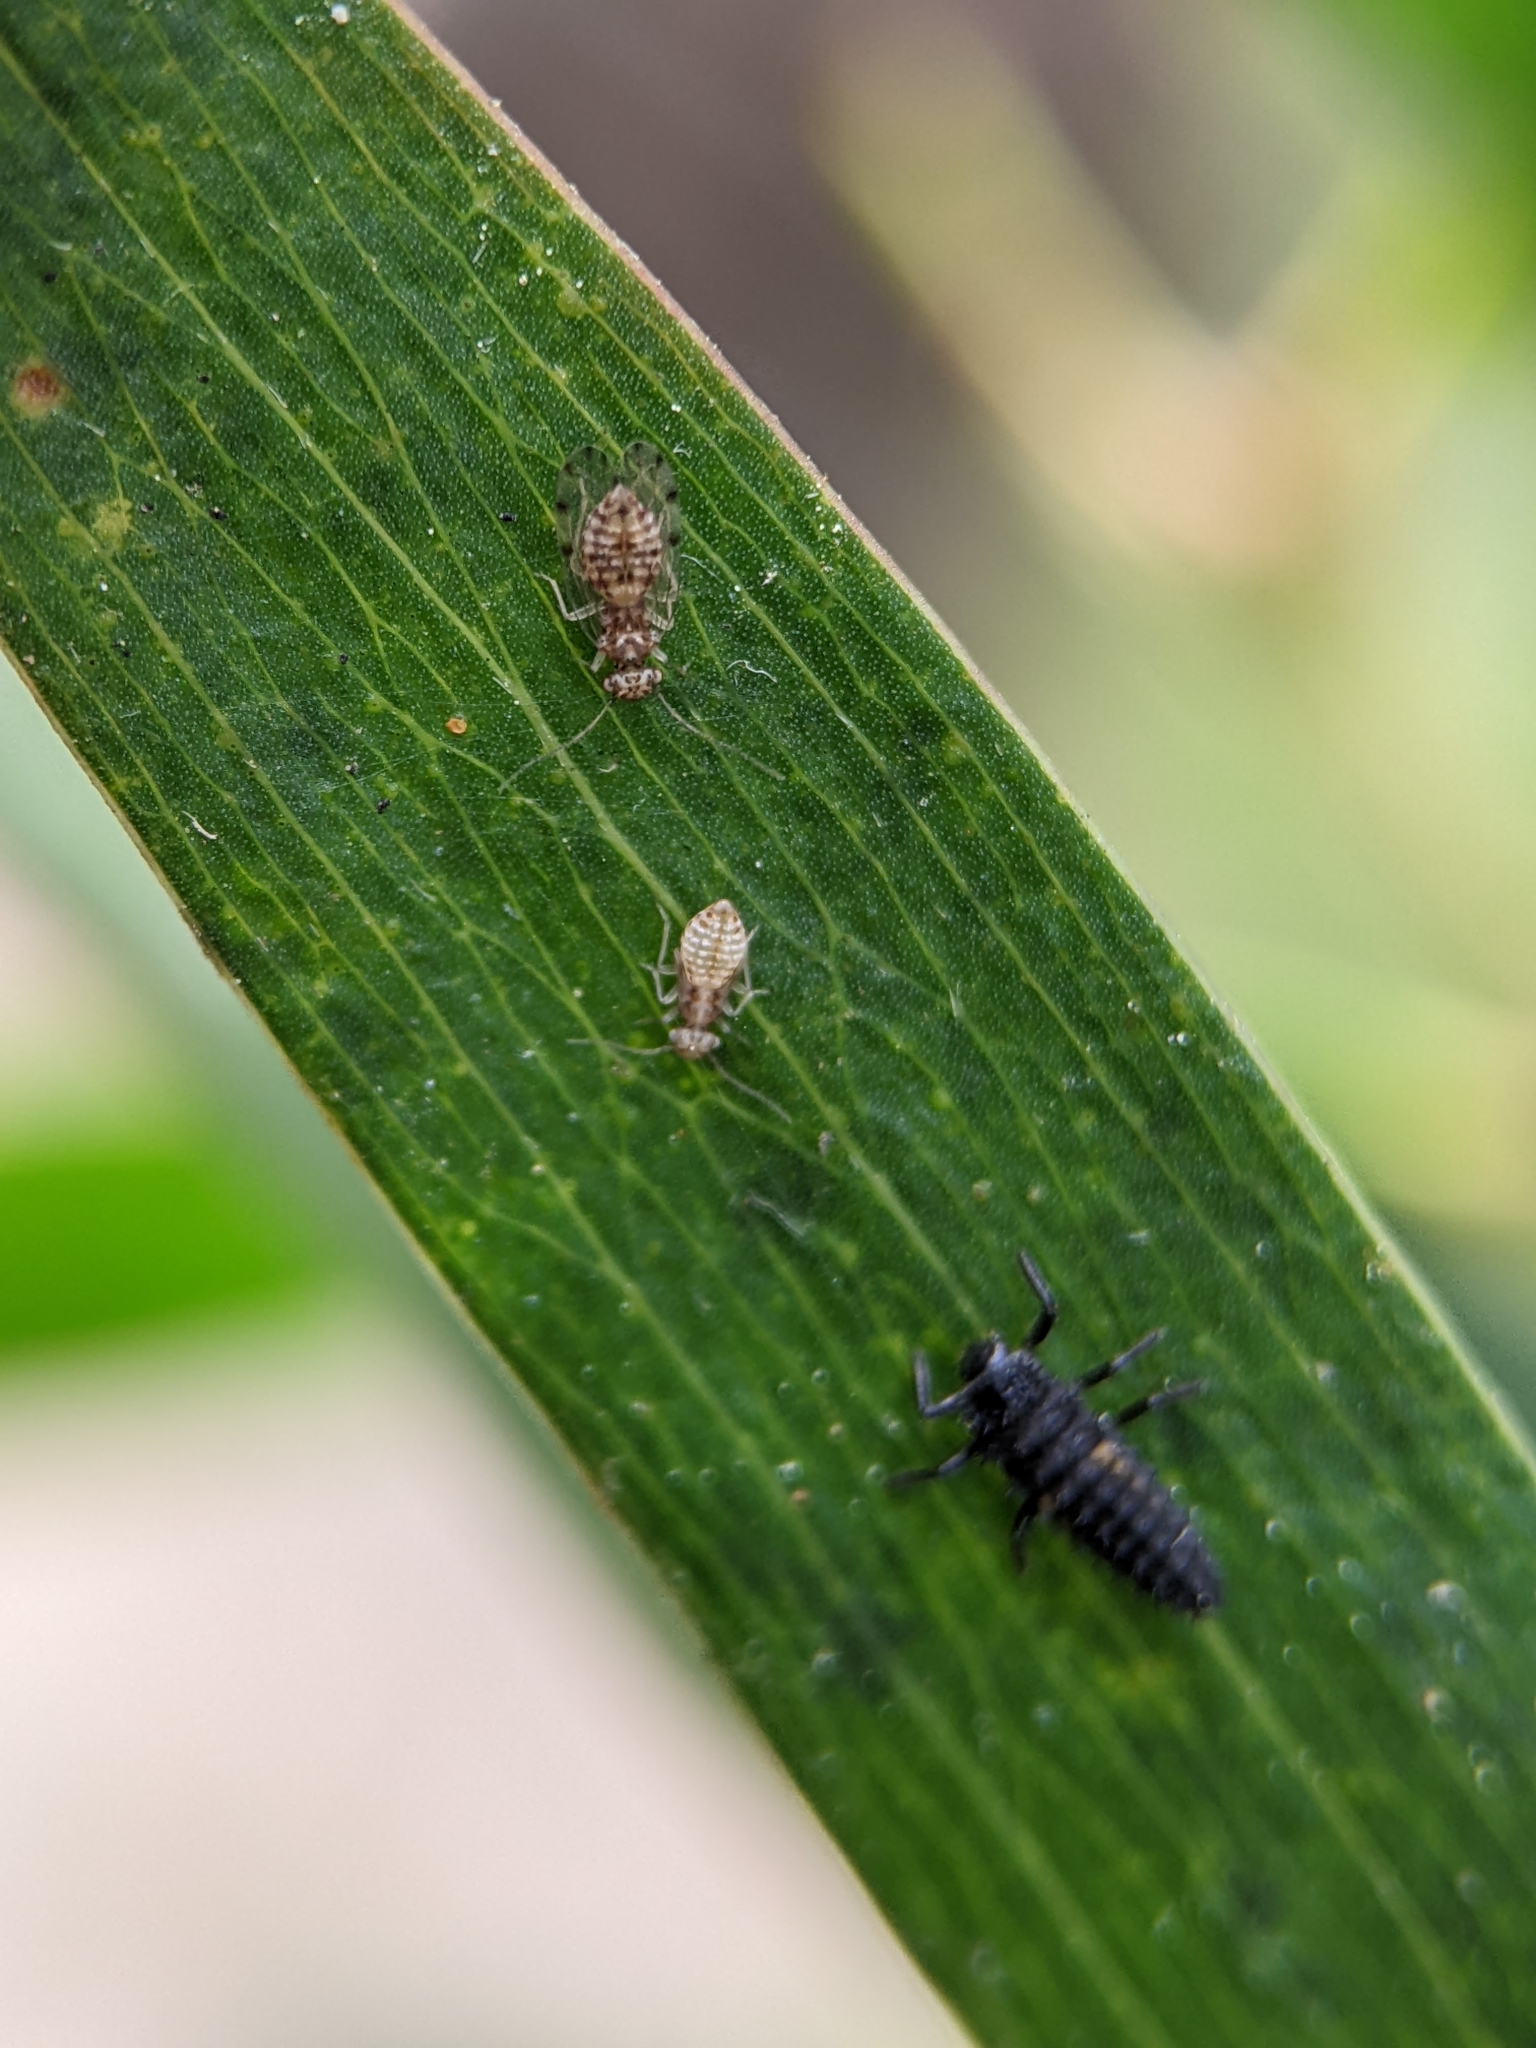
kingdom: Animalia
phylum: Arthropoda
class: Insecta
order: Psocodea
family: Ectopsocidae
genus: Ectopsocus
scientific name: Ectopsocus petersi
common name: Medium-sized bark louse
